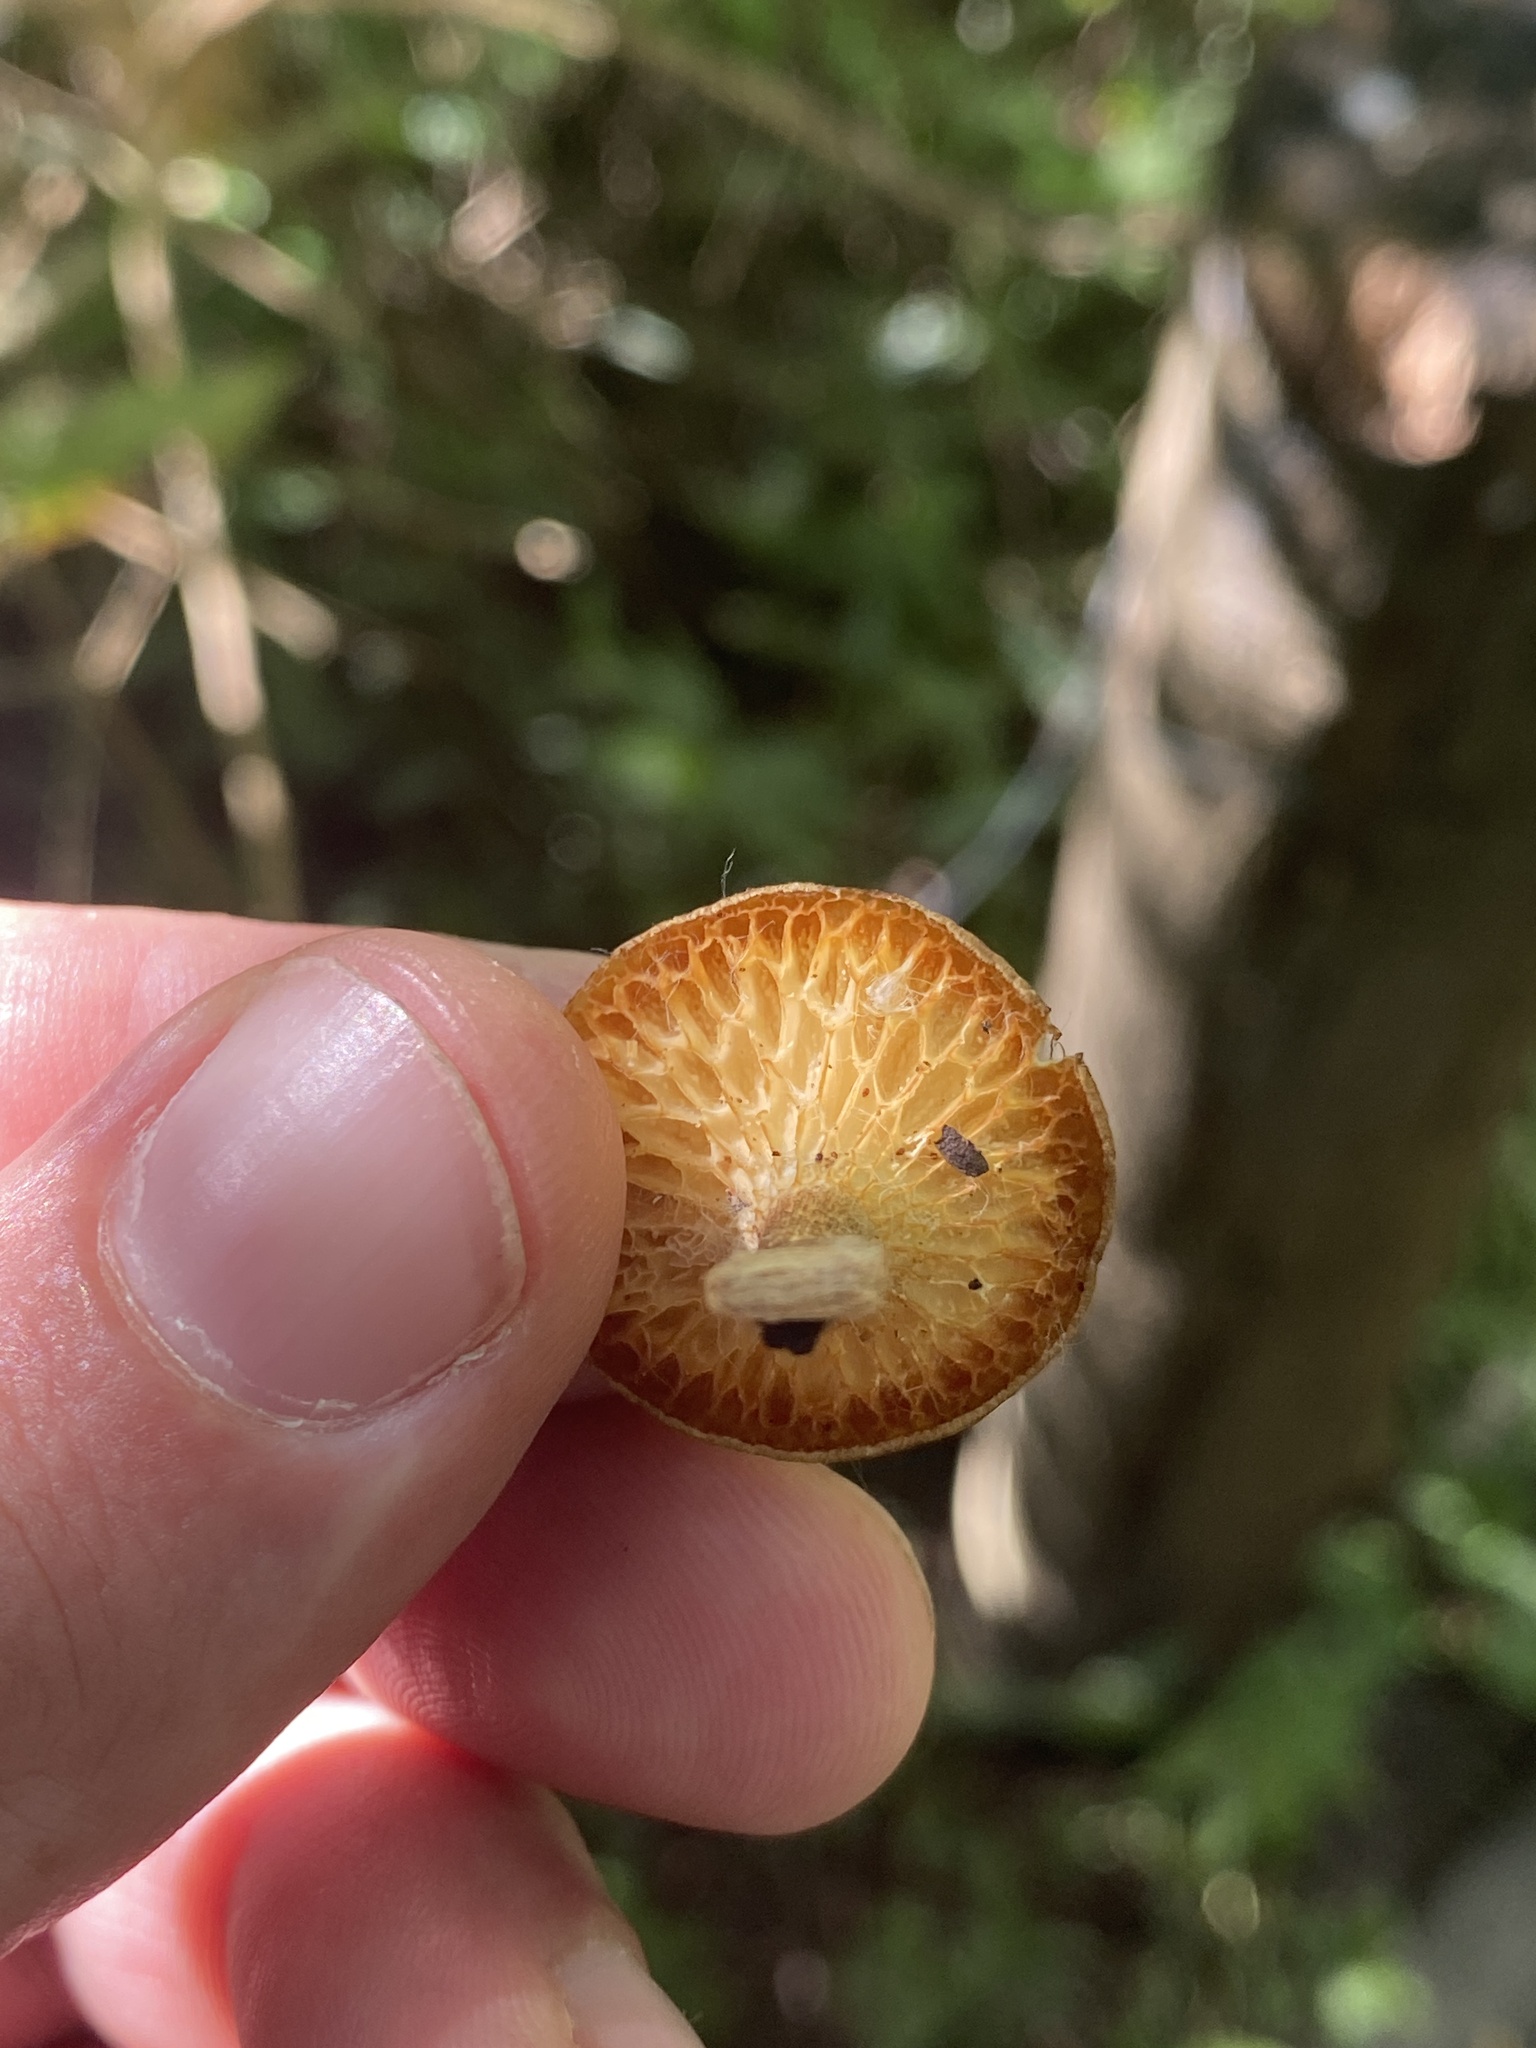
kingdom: Fungi
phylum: Basidiomycota
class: Agaricomycetes
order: Polyporales
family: Polyporaceae
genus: Lentinus
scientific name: Lentinus arcularius
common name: Spring polypore
